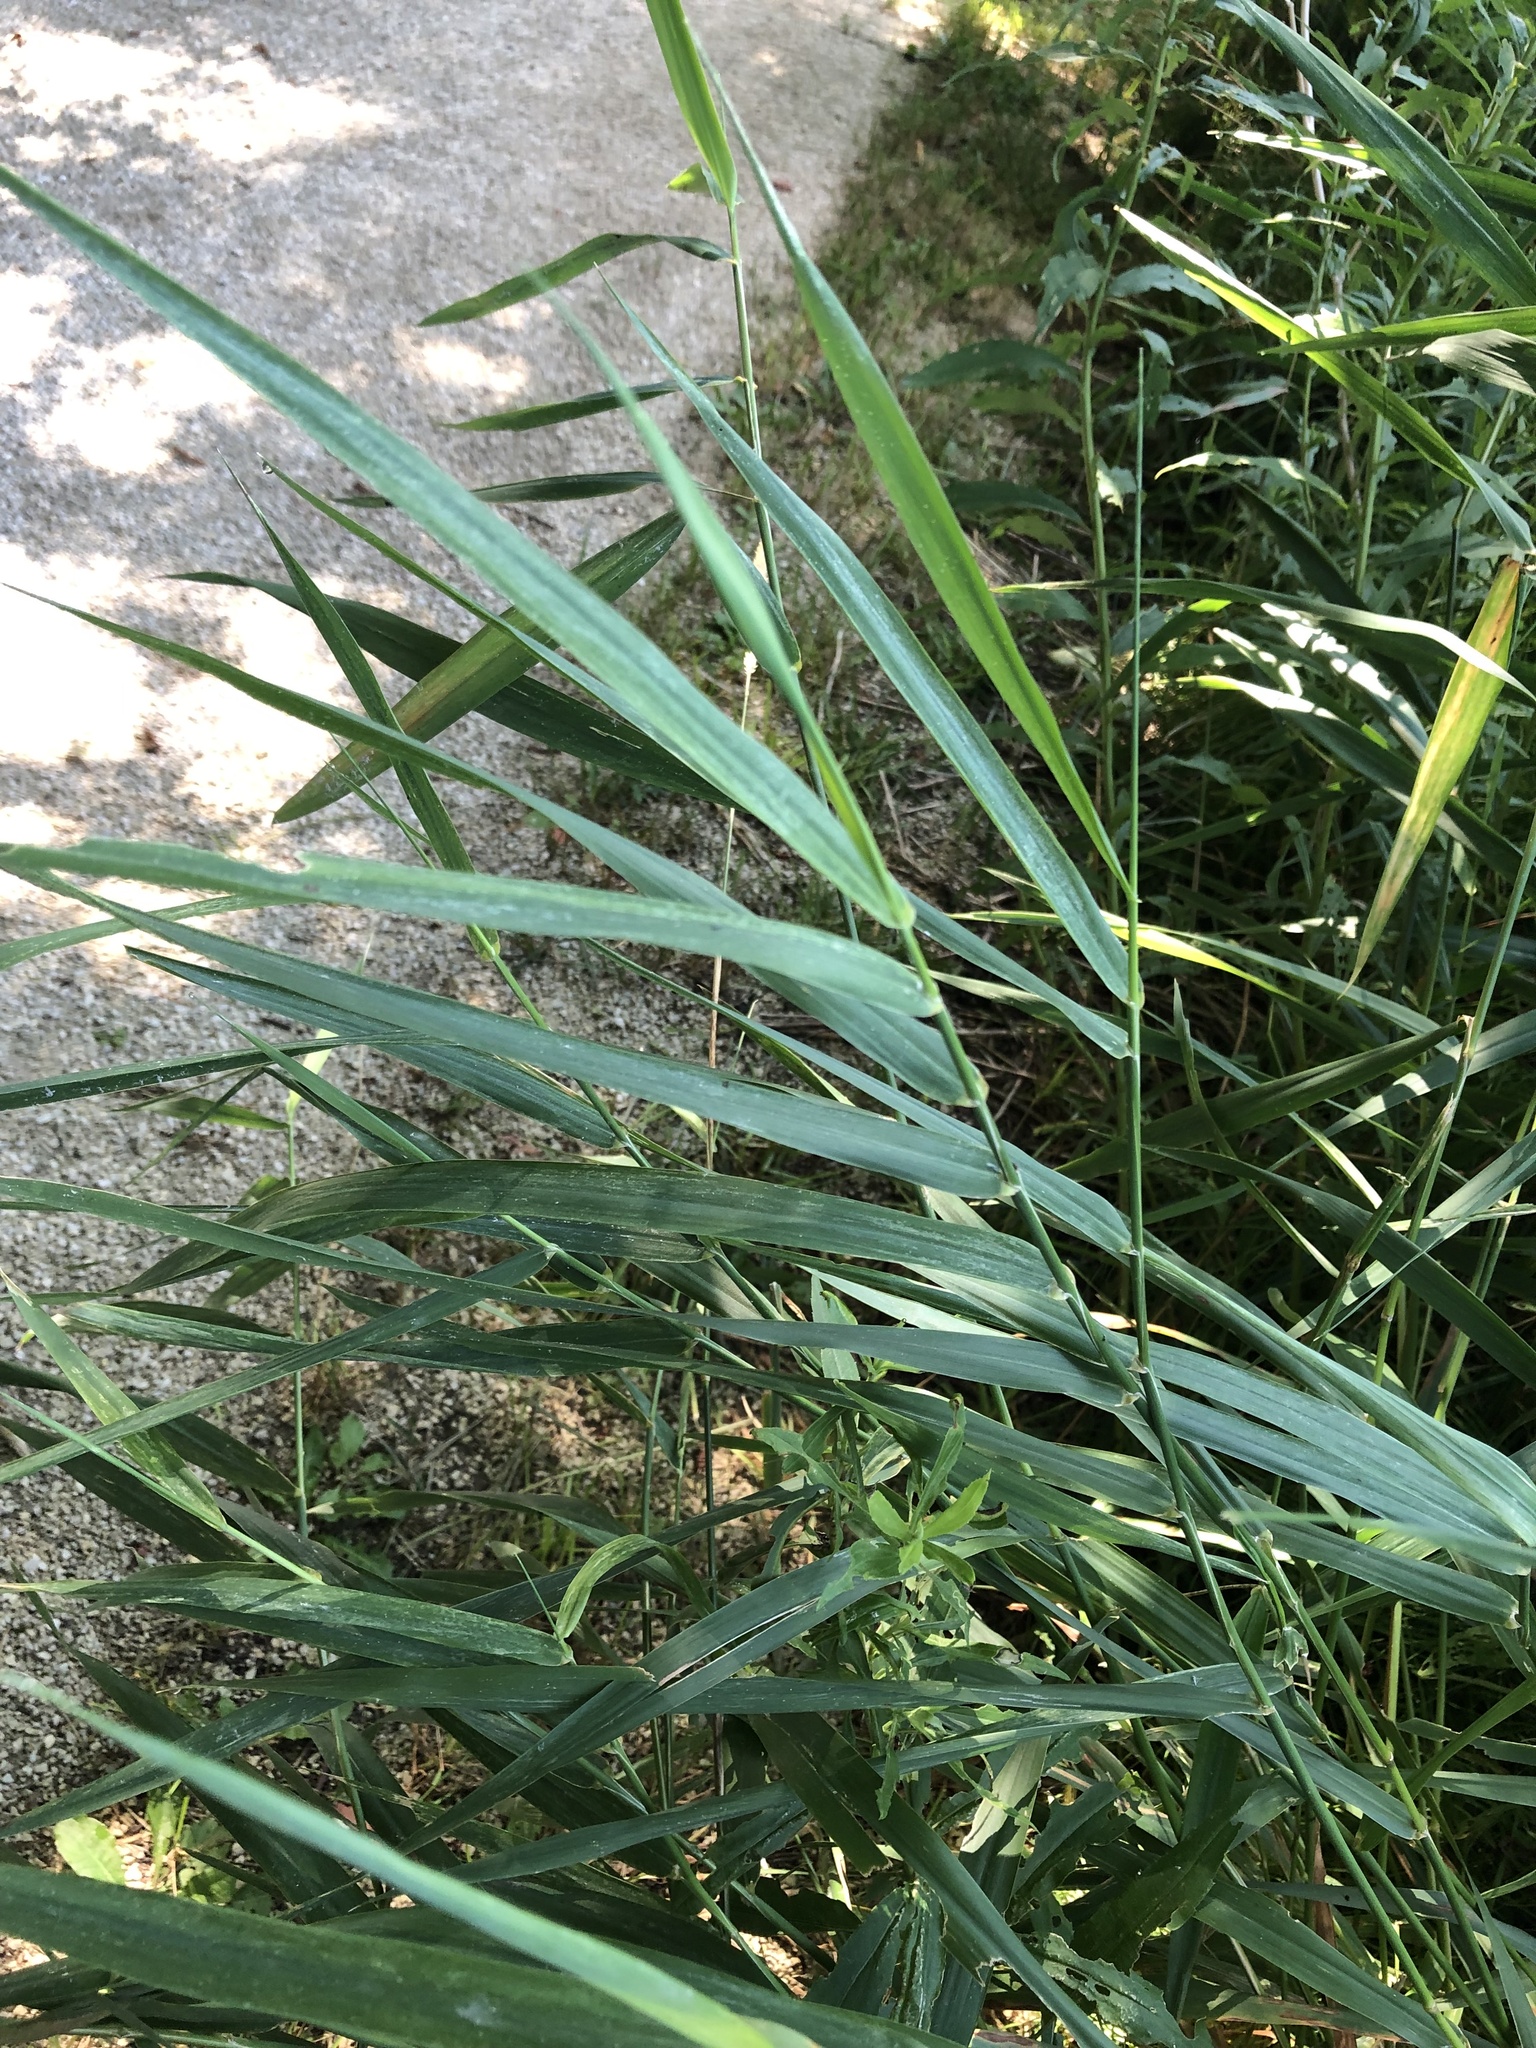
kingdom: Plantae
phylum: Tracheophyta
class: Liliopsida
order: Poales
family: Poaceae
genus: Phragmites
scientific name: Phragmites australis
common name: Common reed
